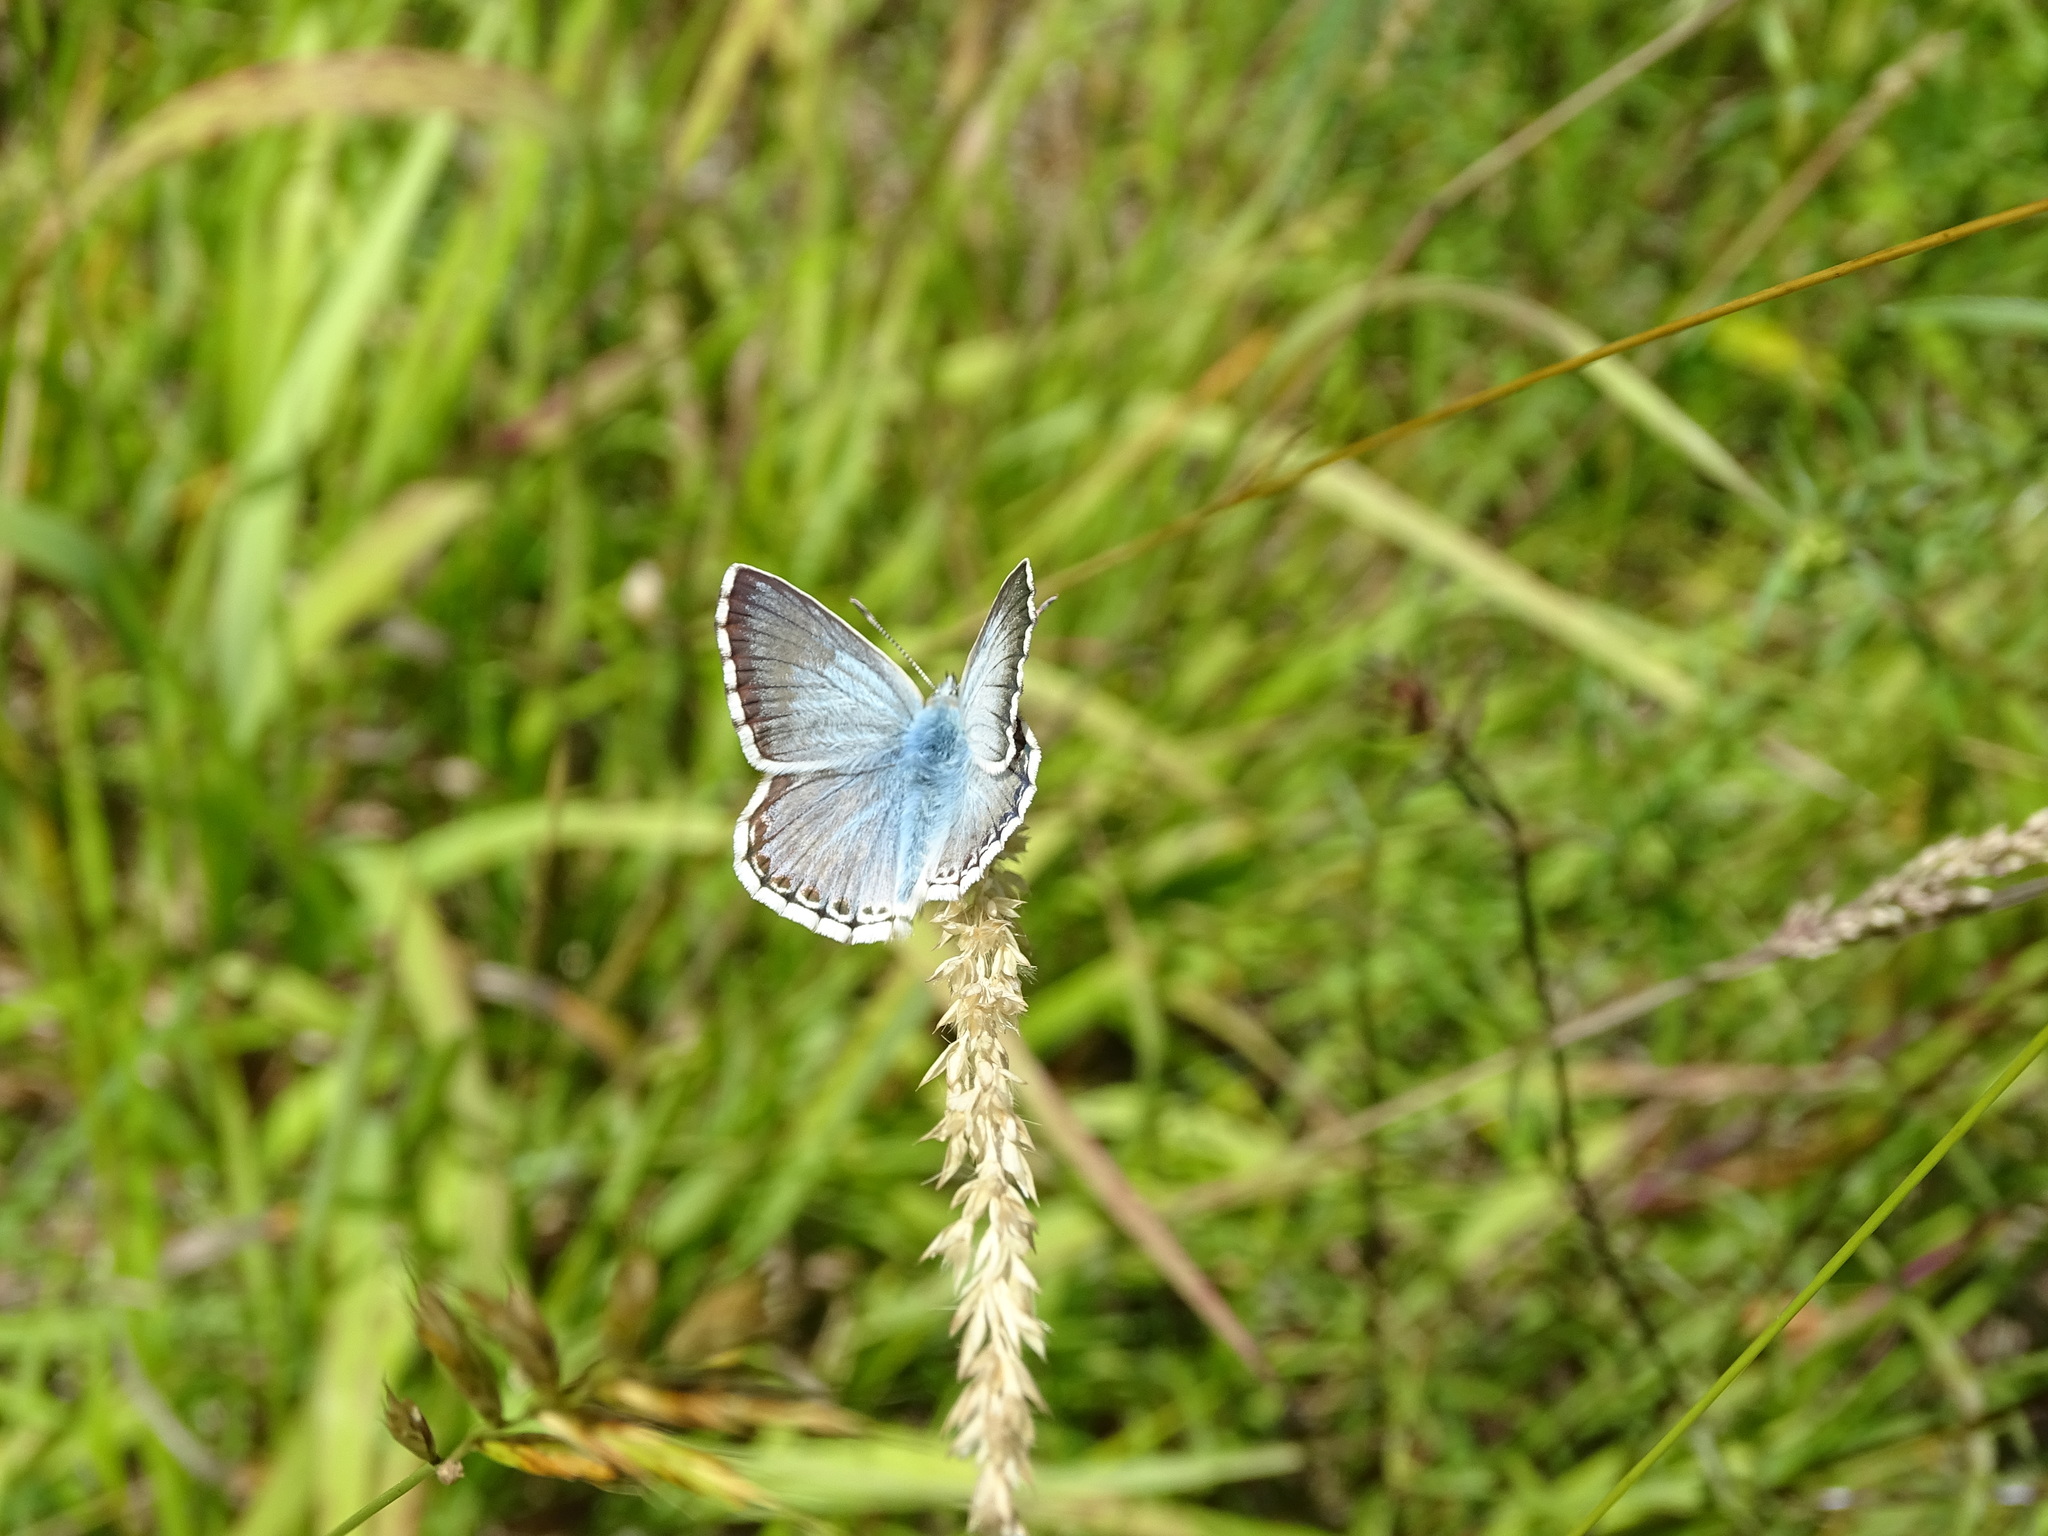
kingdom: Animalia
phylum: Arthropoda
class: Insecta
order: Lepidoptera
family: Lycaenidae
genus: Lysandra
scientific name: Lysandra coridon
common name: Chalkhill blue
